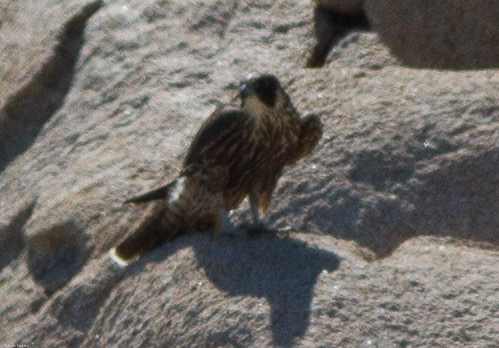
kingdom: Animalia
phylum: Chordata
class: Aves
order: Falconiformes
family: Falconidae
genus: Falco
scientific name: Falco peregrinus
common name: Peregrine falcon
